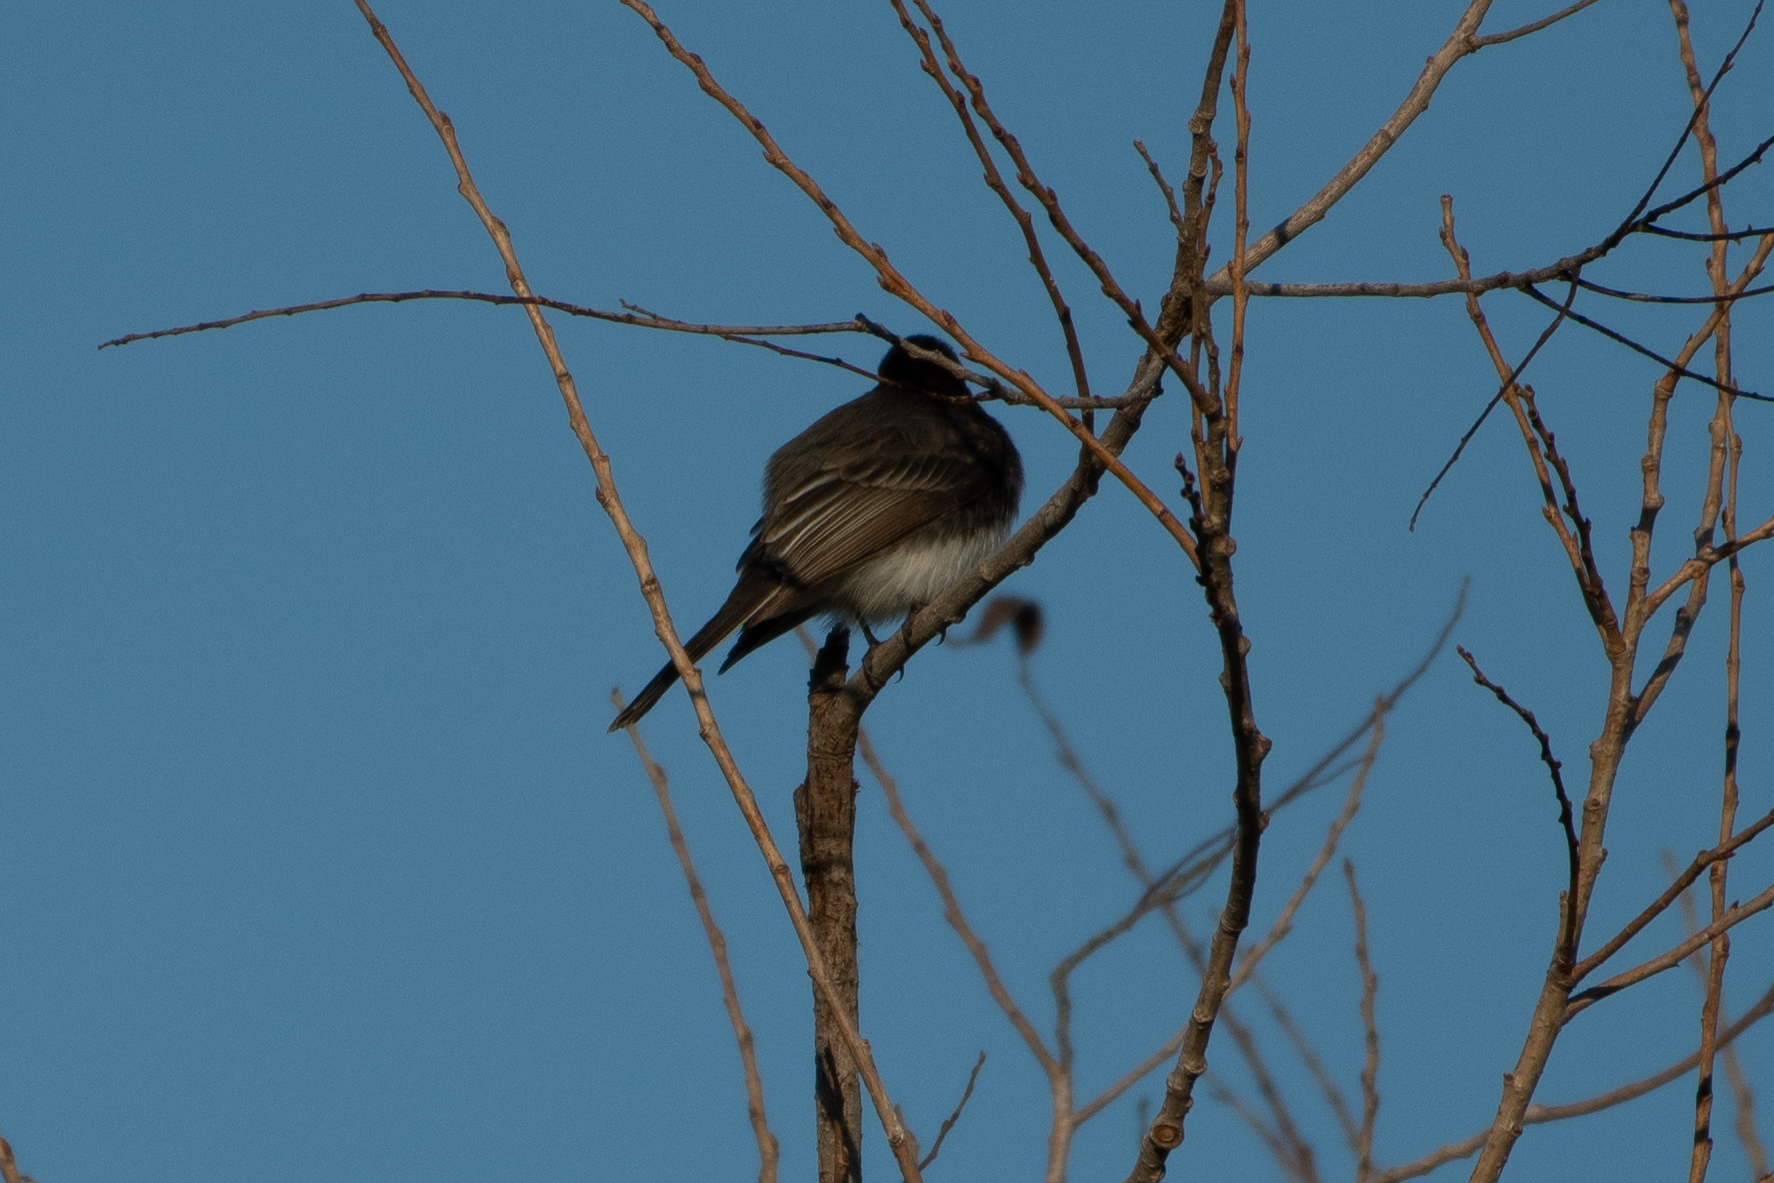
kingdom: Animalia
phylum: Chordata
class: Aves
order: Passeriformes
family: Tyrannidae
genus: Sayornis
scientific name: Sayornis nigricans
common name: Black phoebe
